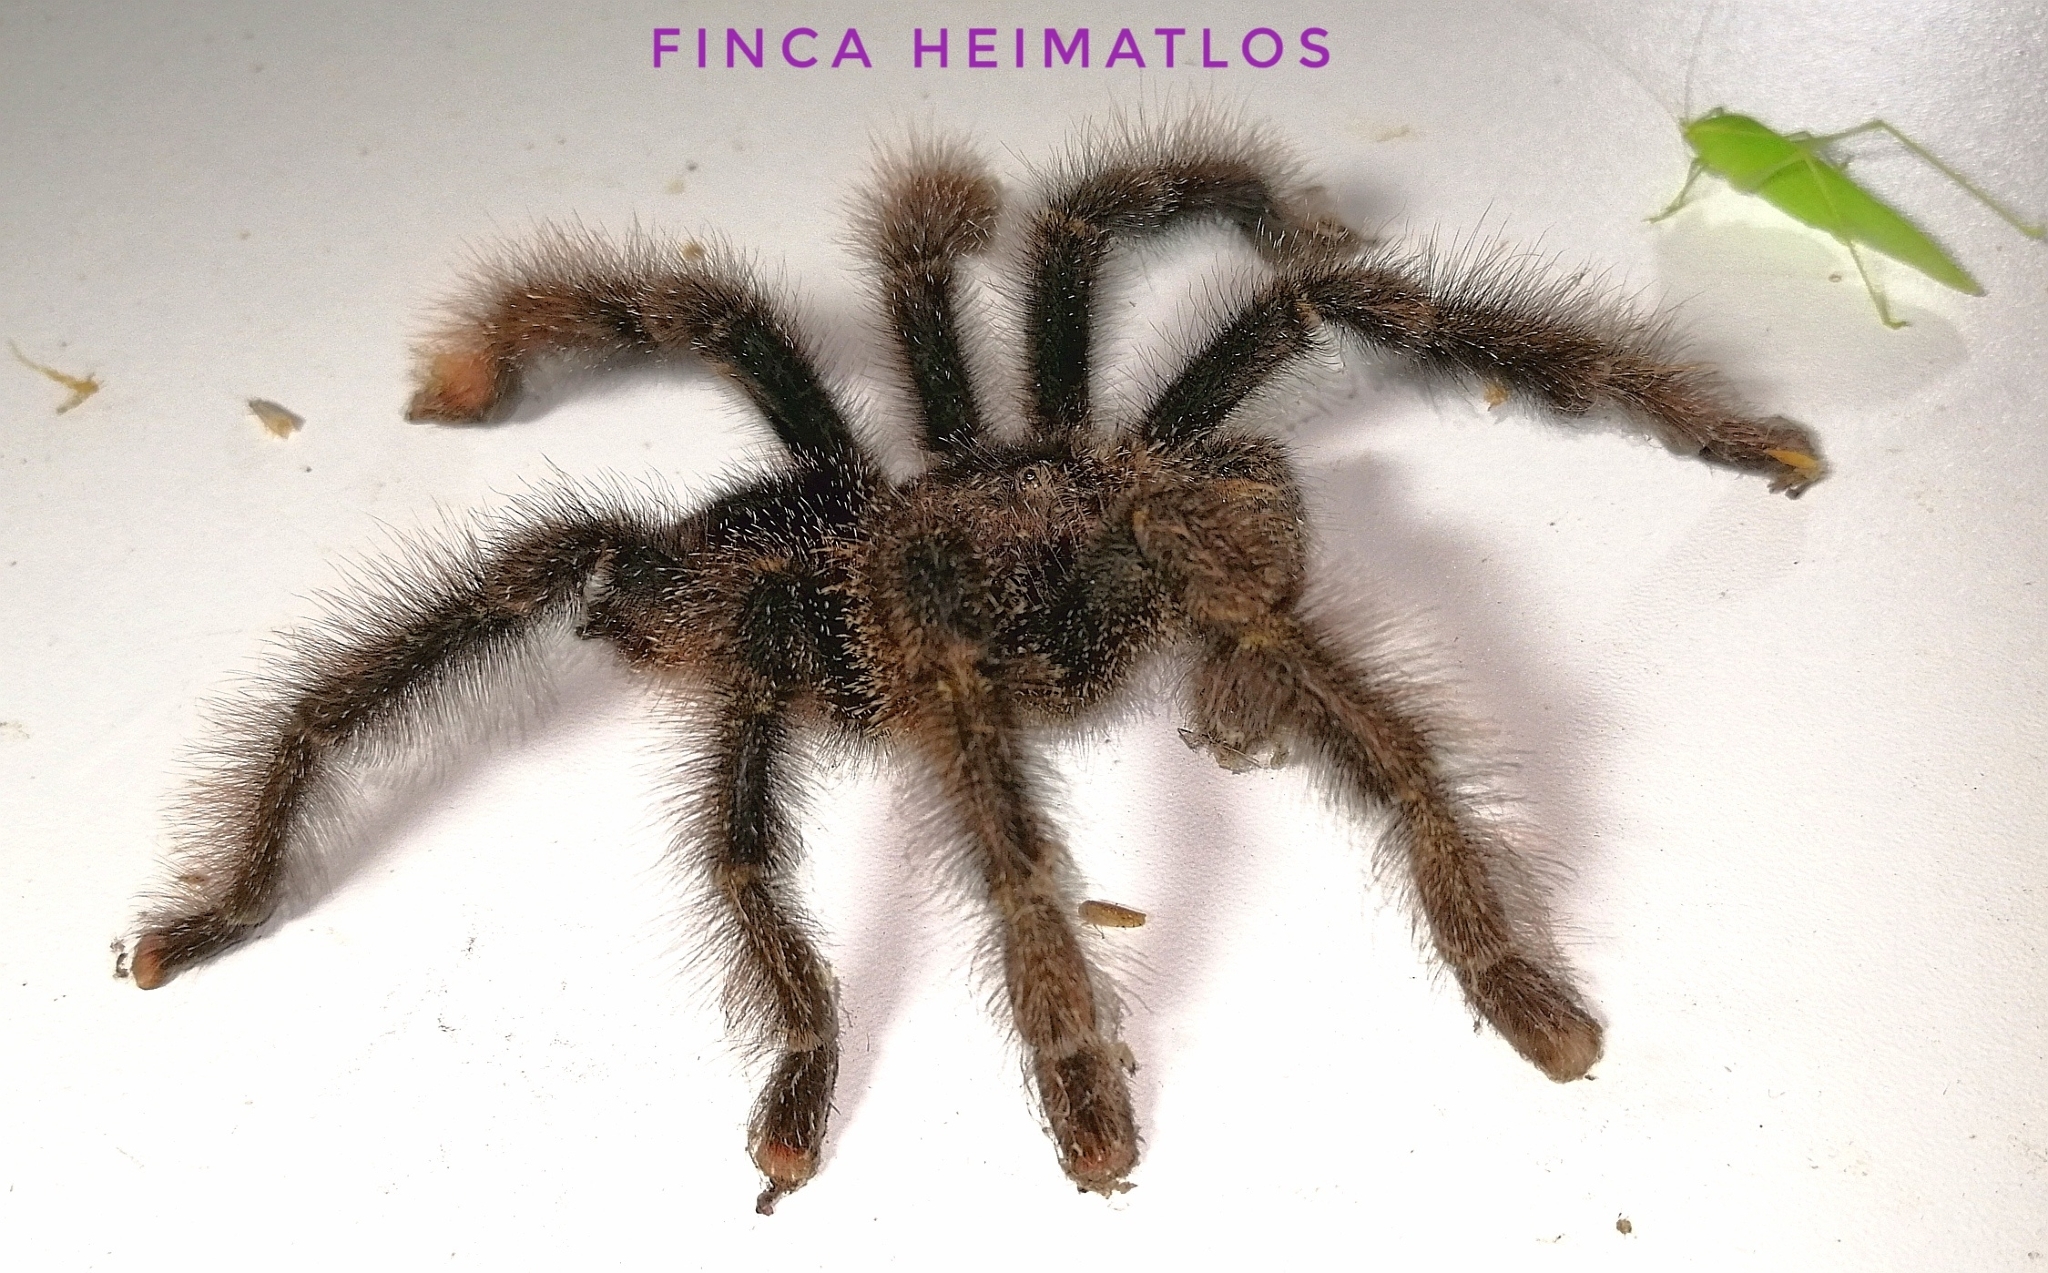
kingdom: Animalia
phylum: Arthropoda
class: Arachnida
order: Araneae
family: Theraphosidae
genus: Avicularia
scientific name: Avicularia juruensis
